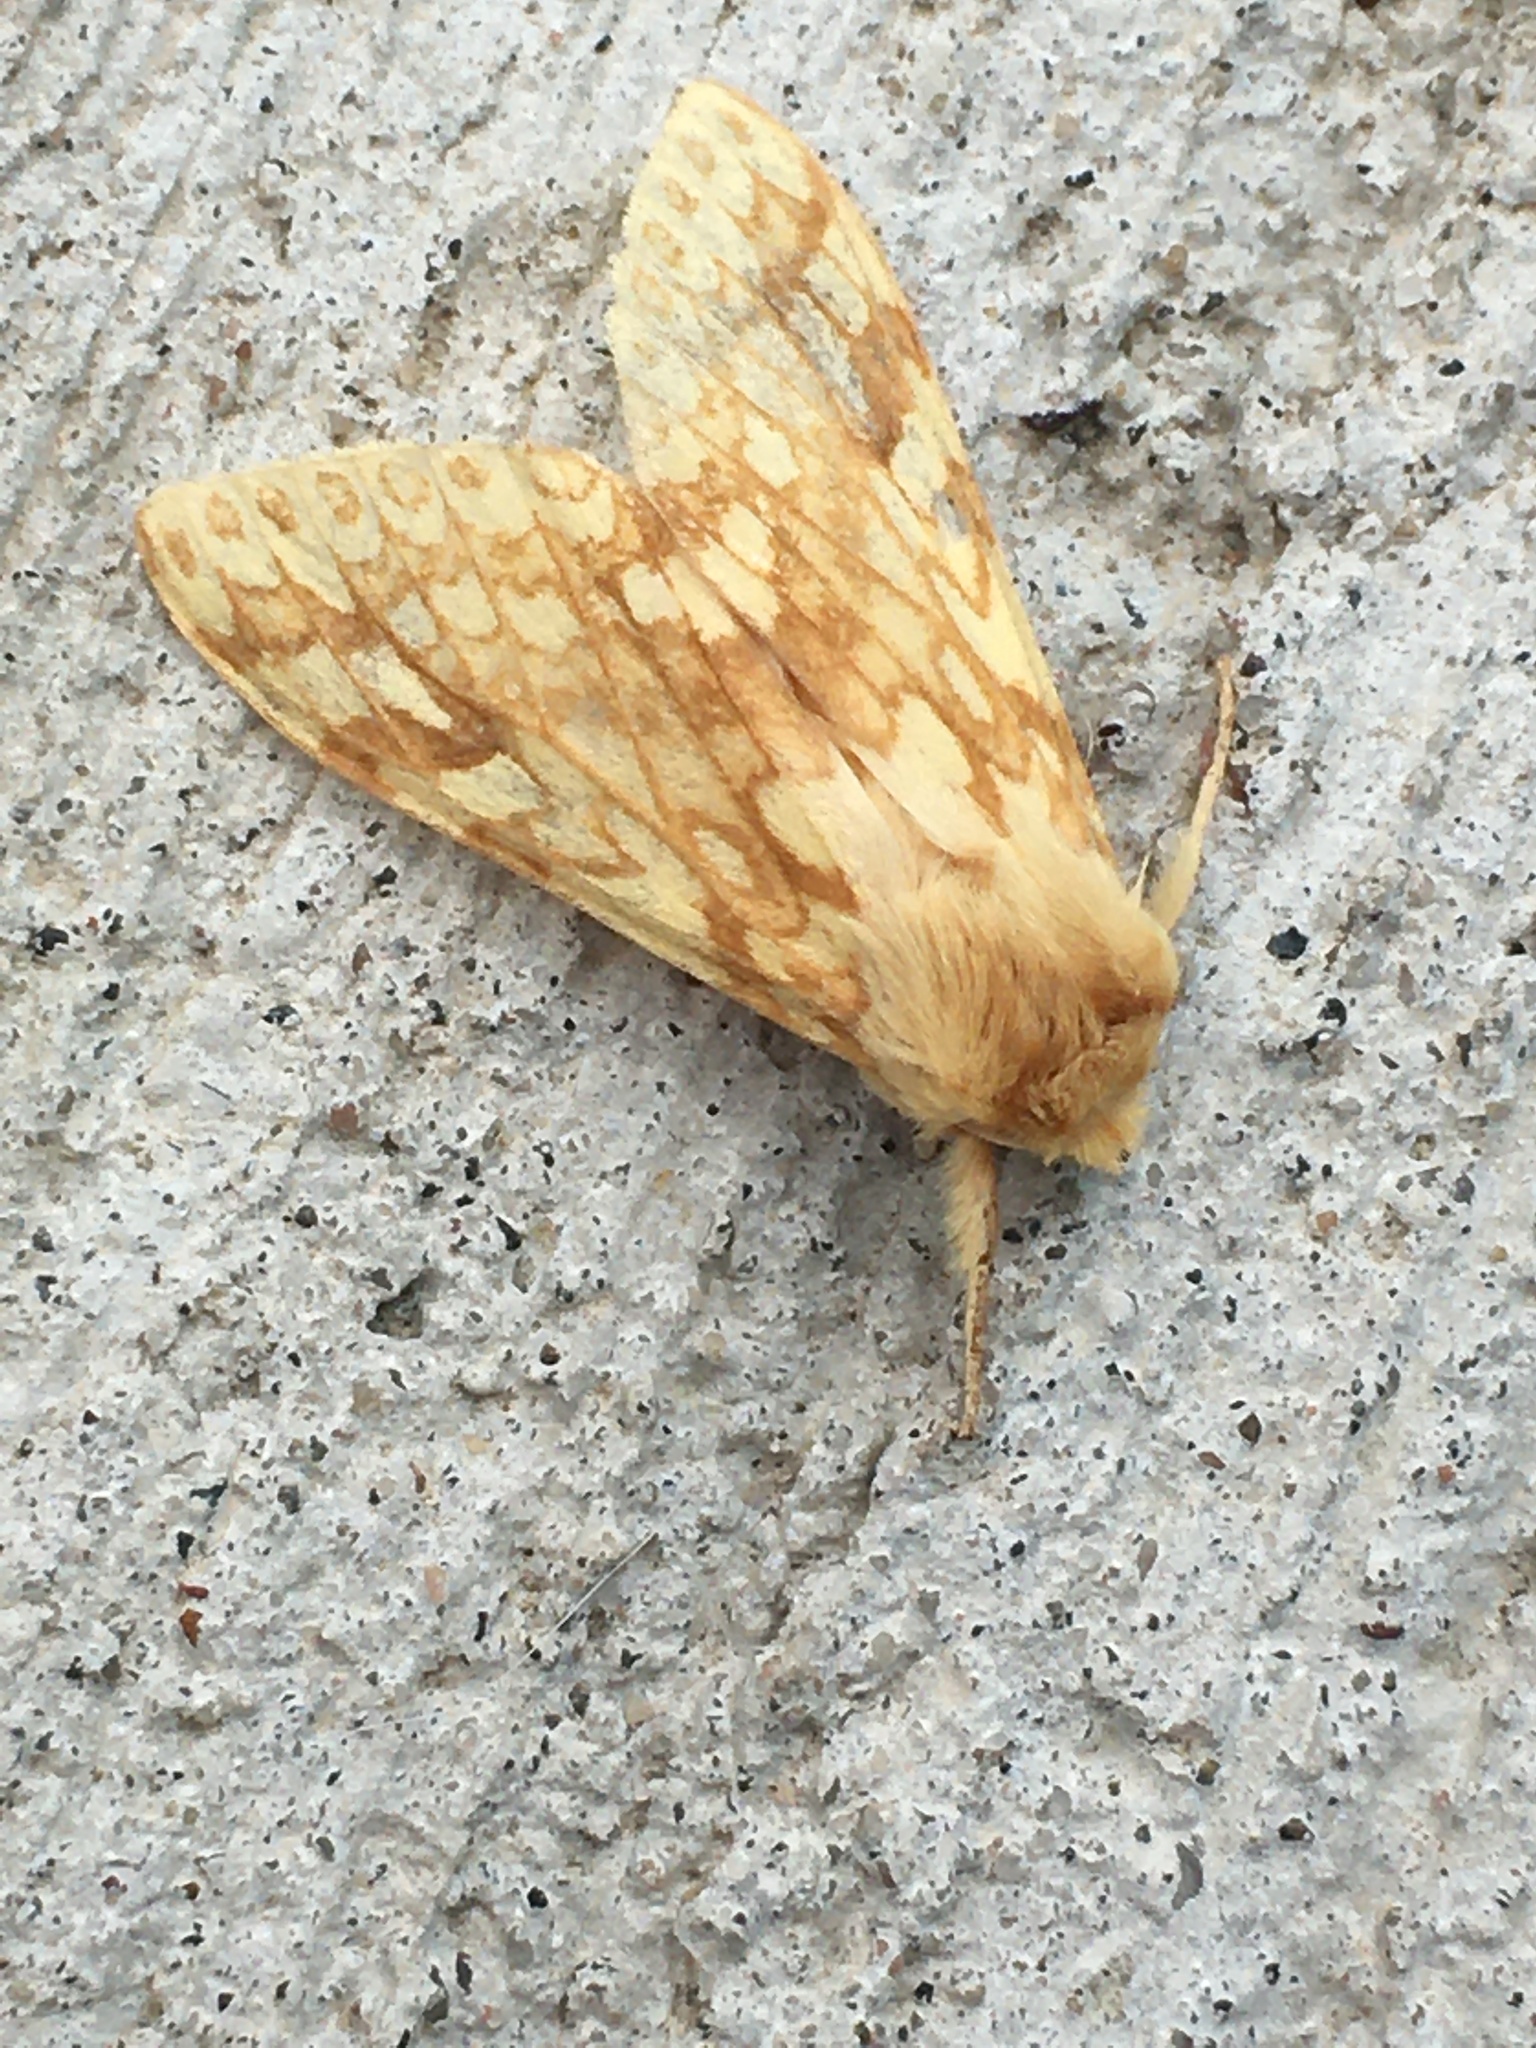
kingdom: Animalia
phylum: Arthropoda
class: Insecta
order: Lepidoptera
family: Erebidae
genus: Lophocampa
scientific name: Lophocampa maculata
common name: Spotted tussock moth
